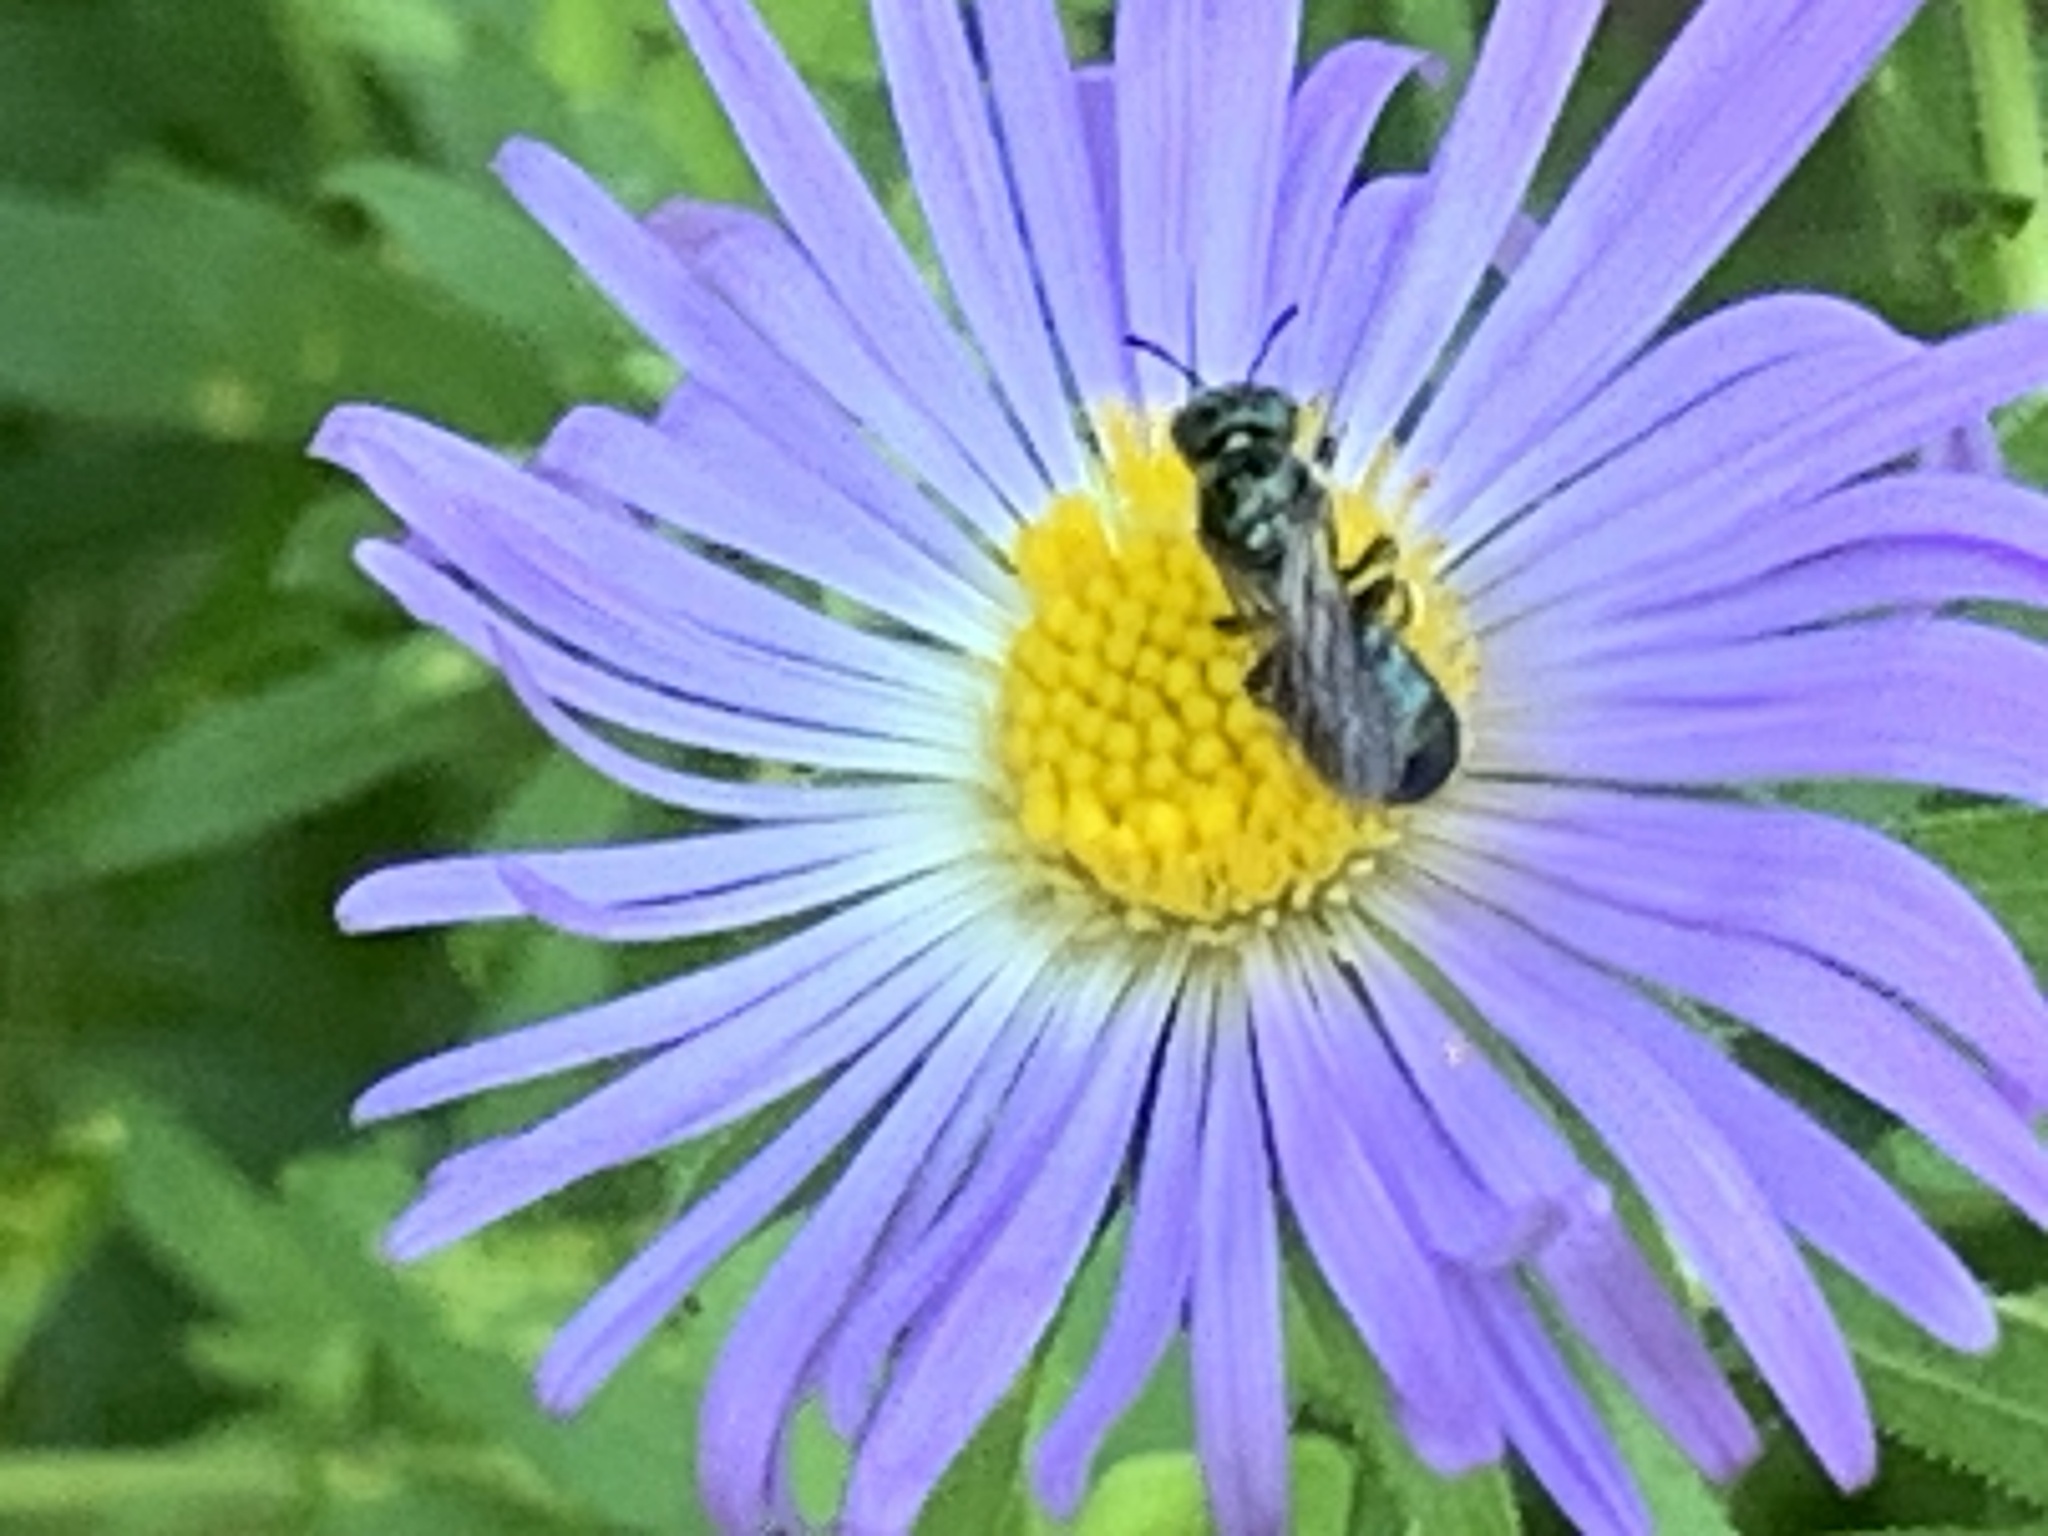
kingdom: Animalia
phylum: Arthropoda
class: Insecta
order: Hymenoptera
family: Apidae
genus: Zadontomerus
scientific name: Zadontomerus
